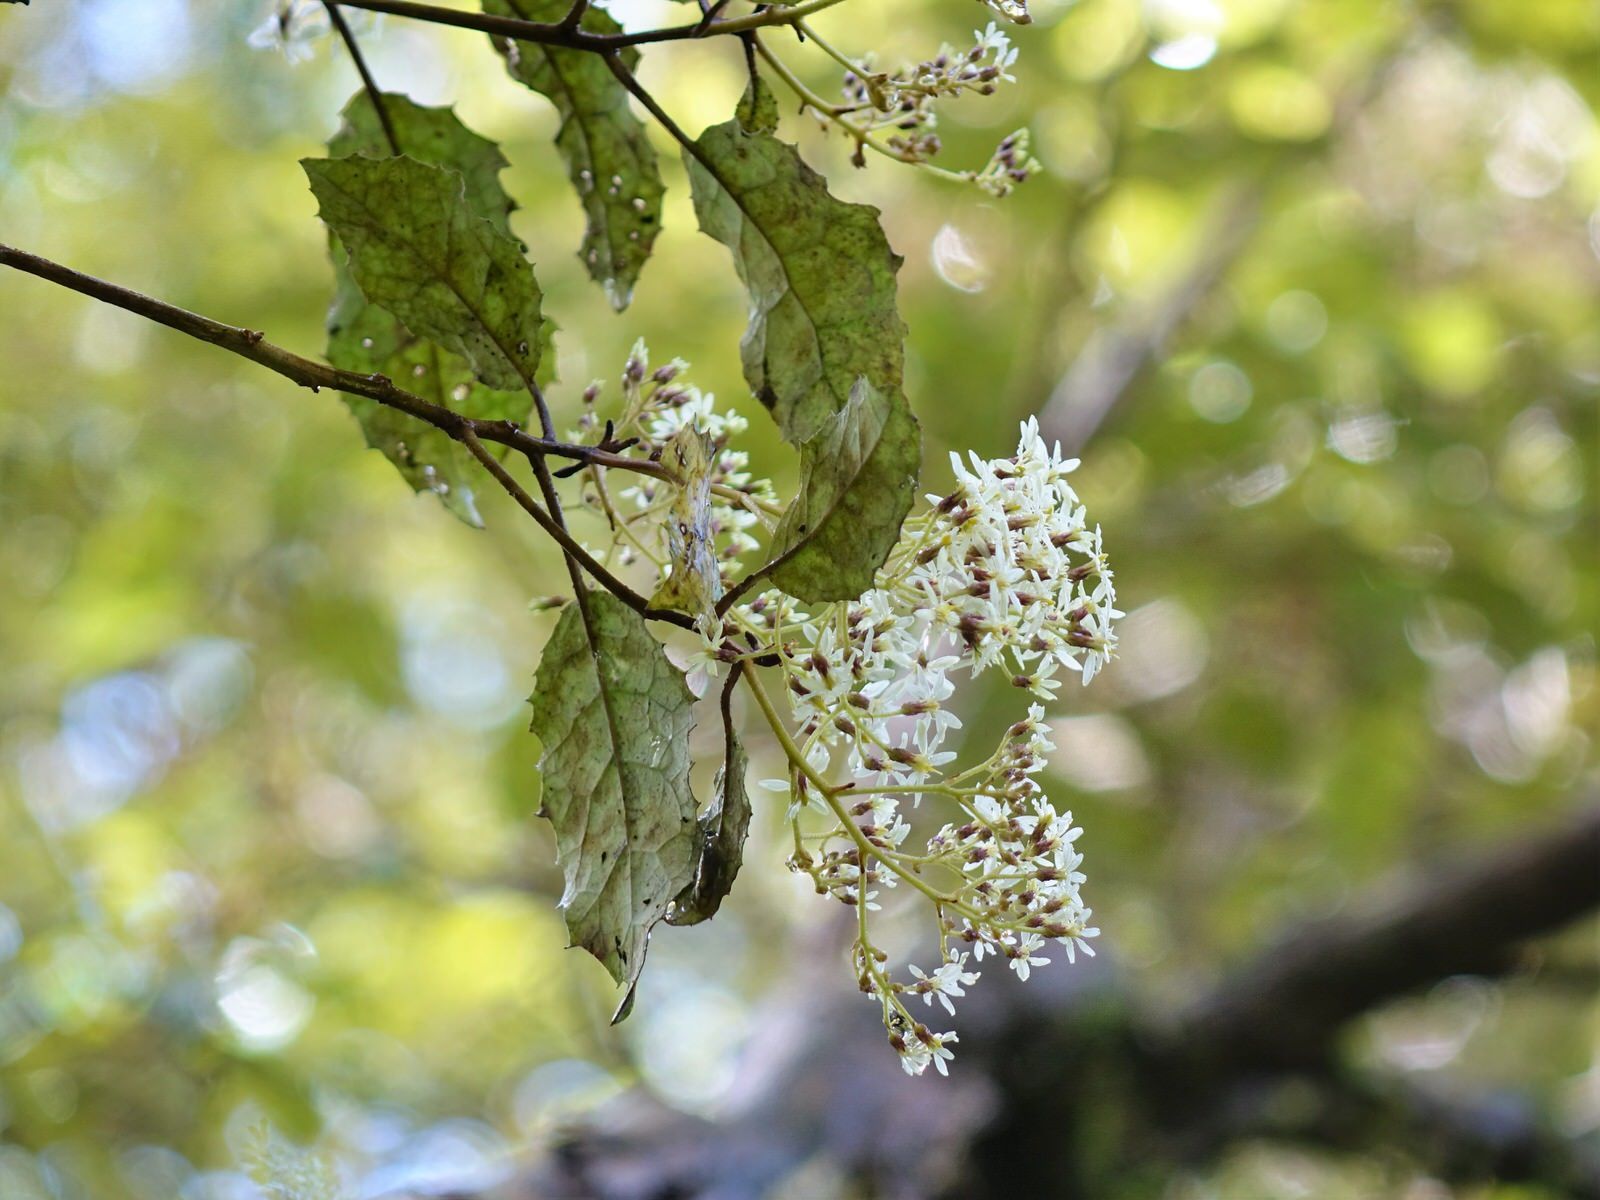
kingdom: Plantae
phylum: Tracheophyta
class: Magnoliopsida
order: Asterales
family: Asteraceae
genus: Olearia
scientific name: Olearia rani
